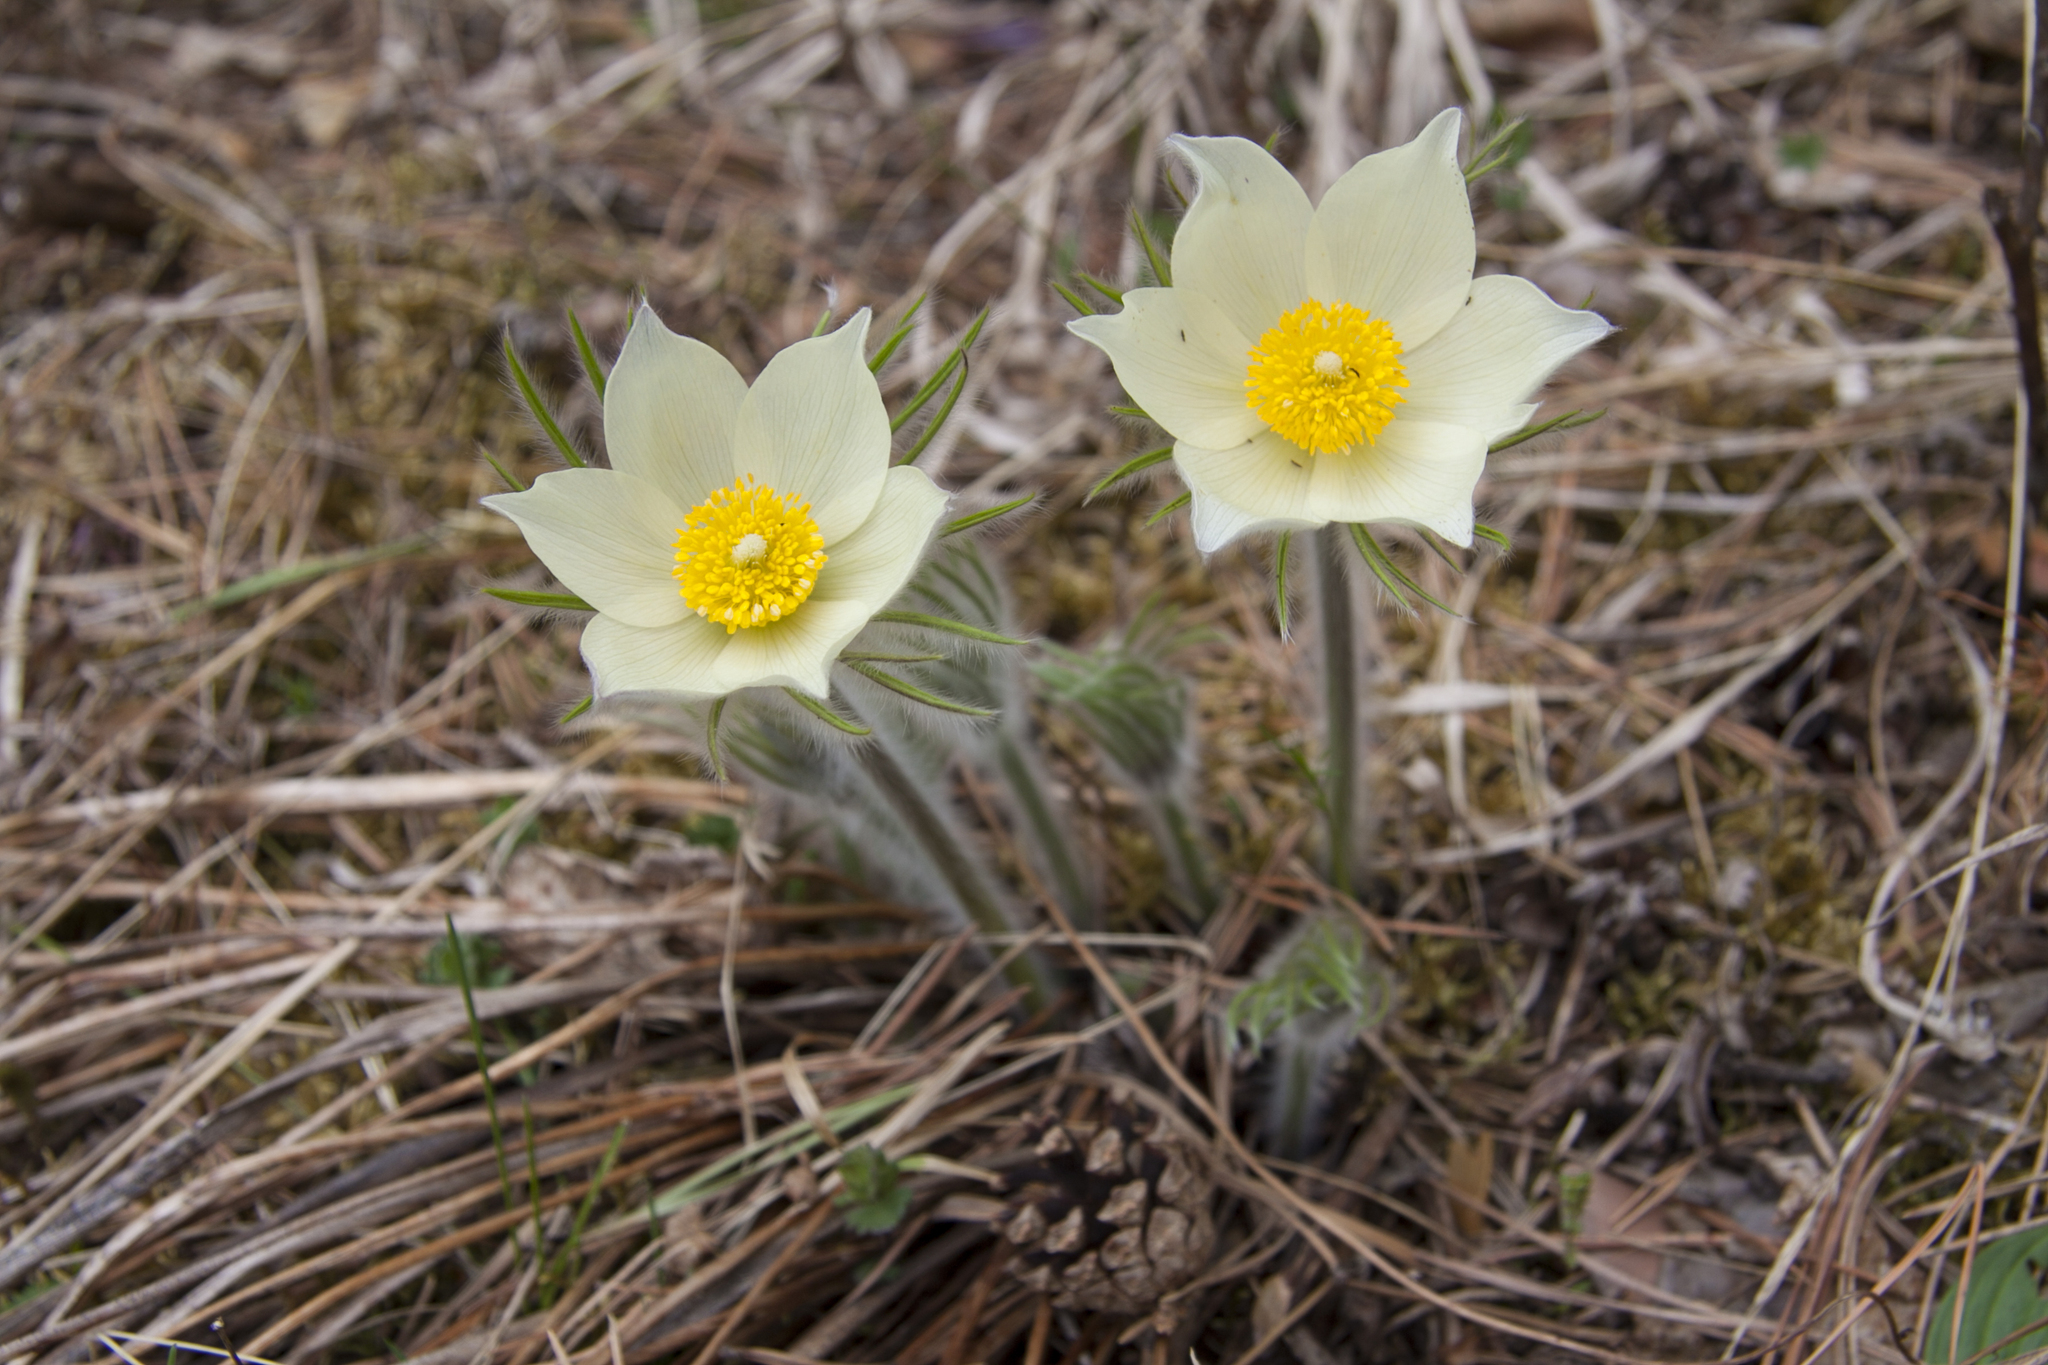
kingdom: Plantae
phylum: Tracheophyta
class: Magnoliopsida
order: Ranunculales
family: Ranunculaceae
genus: Pulsatilla
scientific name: Pulsatilla patens
